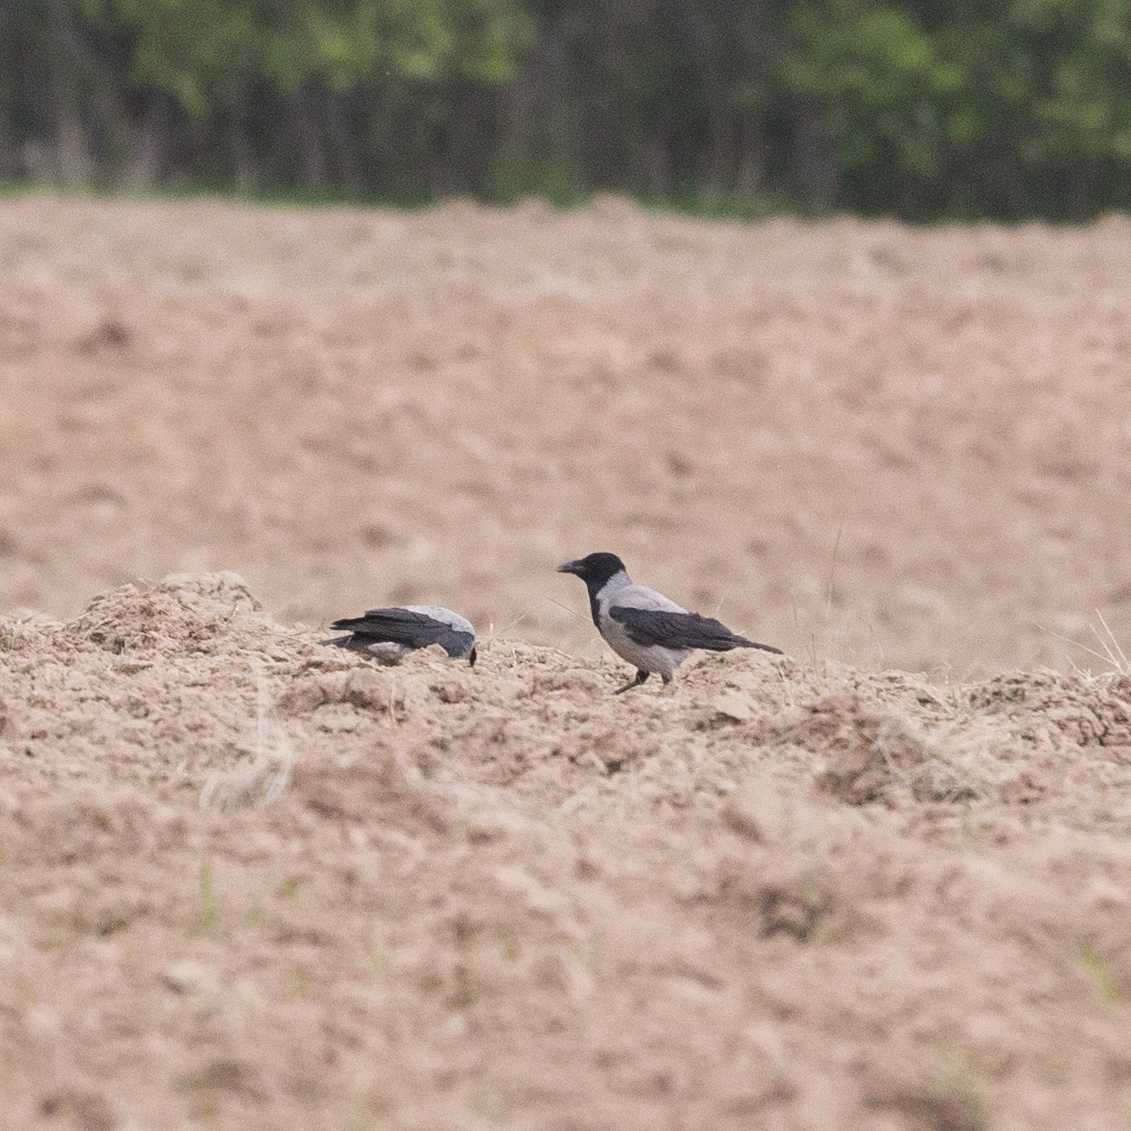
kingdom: Animalia
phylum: Chordata
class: Aves
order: Passeriformes
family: Corvidae
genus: Corvus
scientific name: Corvus cornix
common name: Hooded crow
